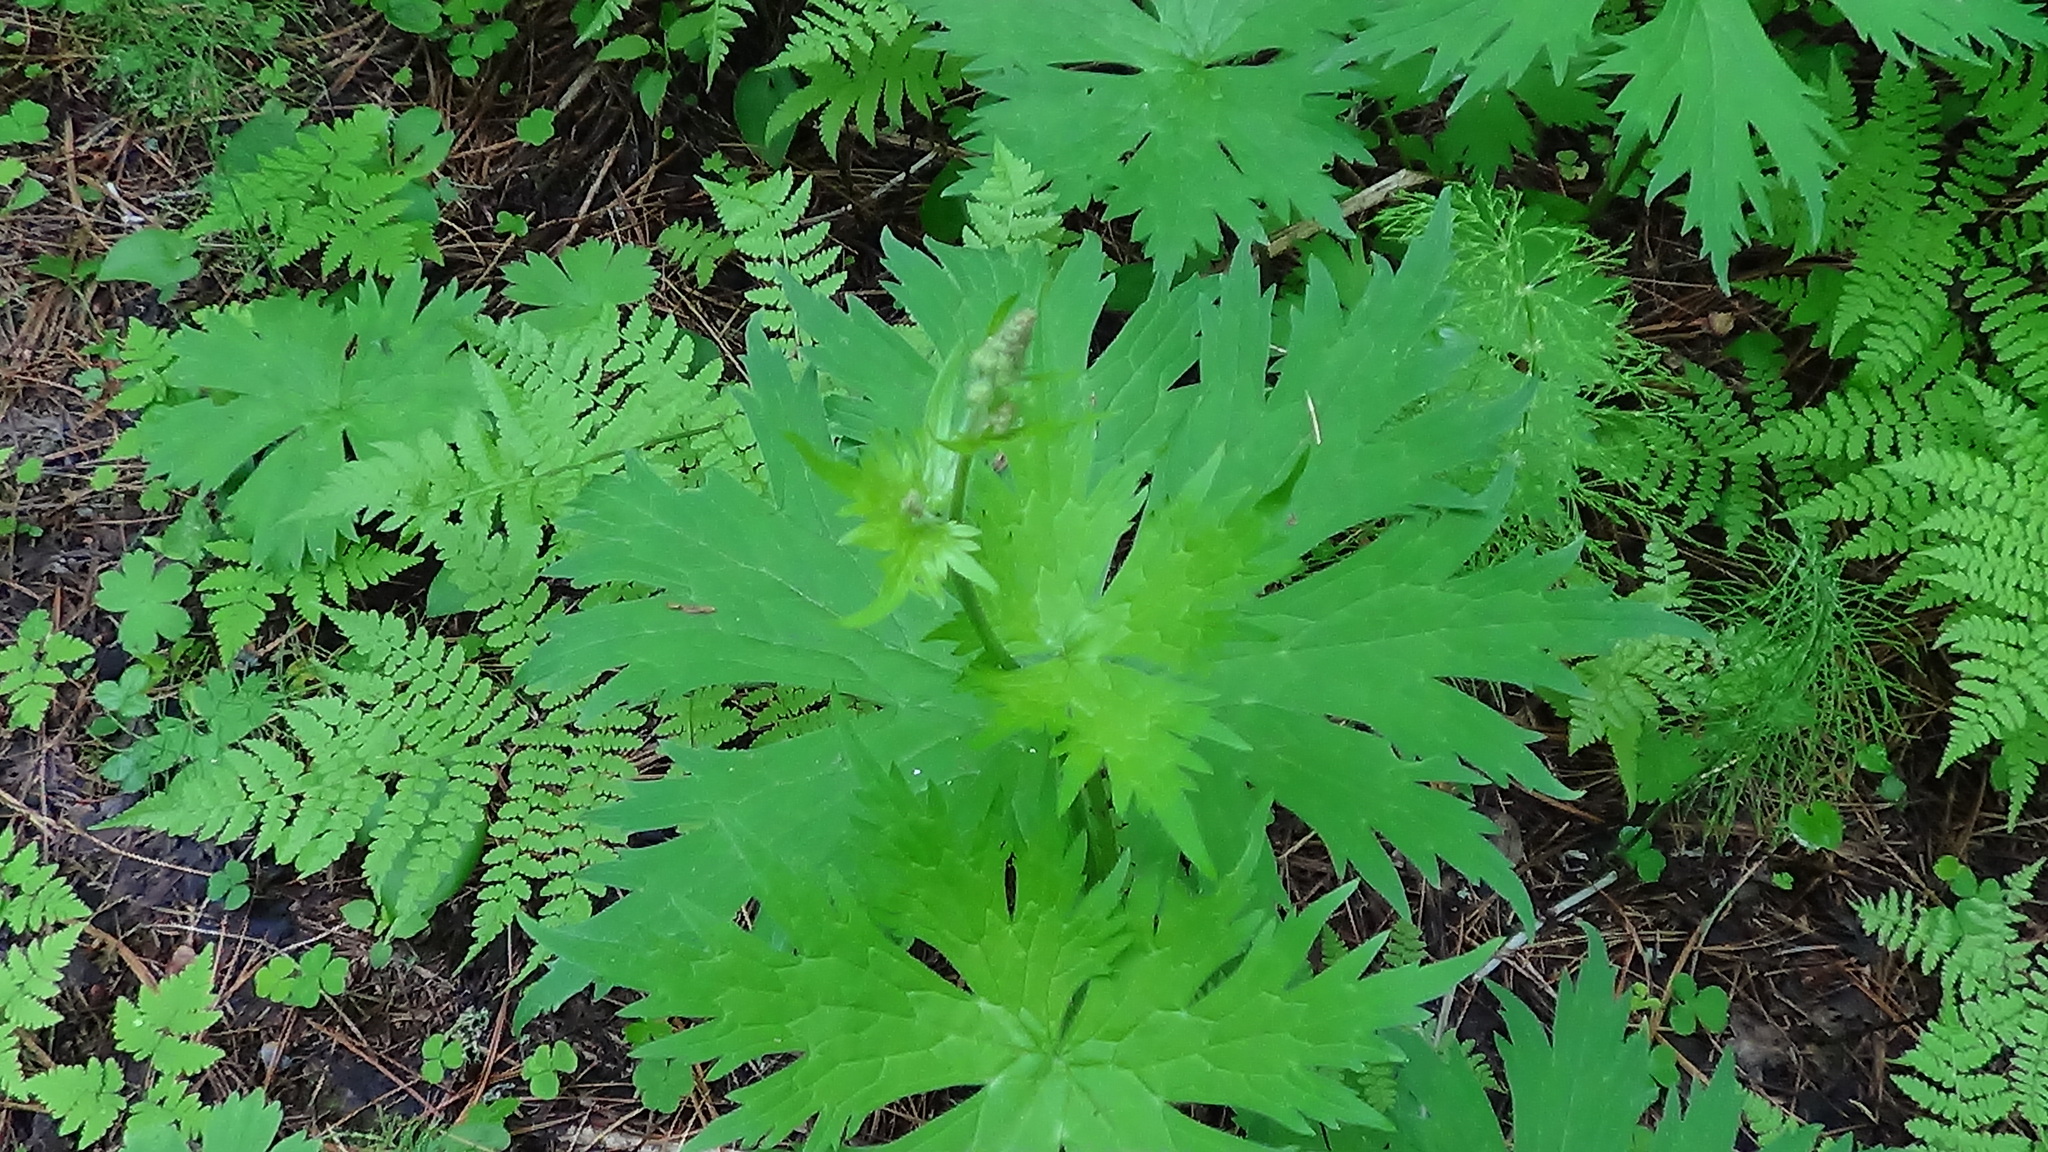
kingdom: Plantae
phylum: Tracheophyta
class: Magnoliopsida
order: Ranunculales
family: Ranunculaceae
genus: Aconitum
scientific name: Aconitum septentrionale
